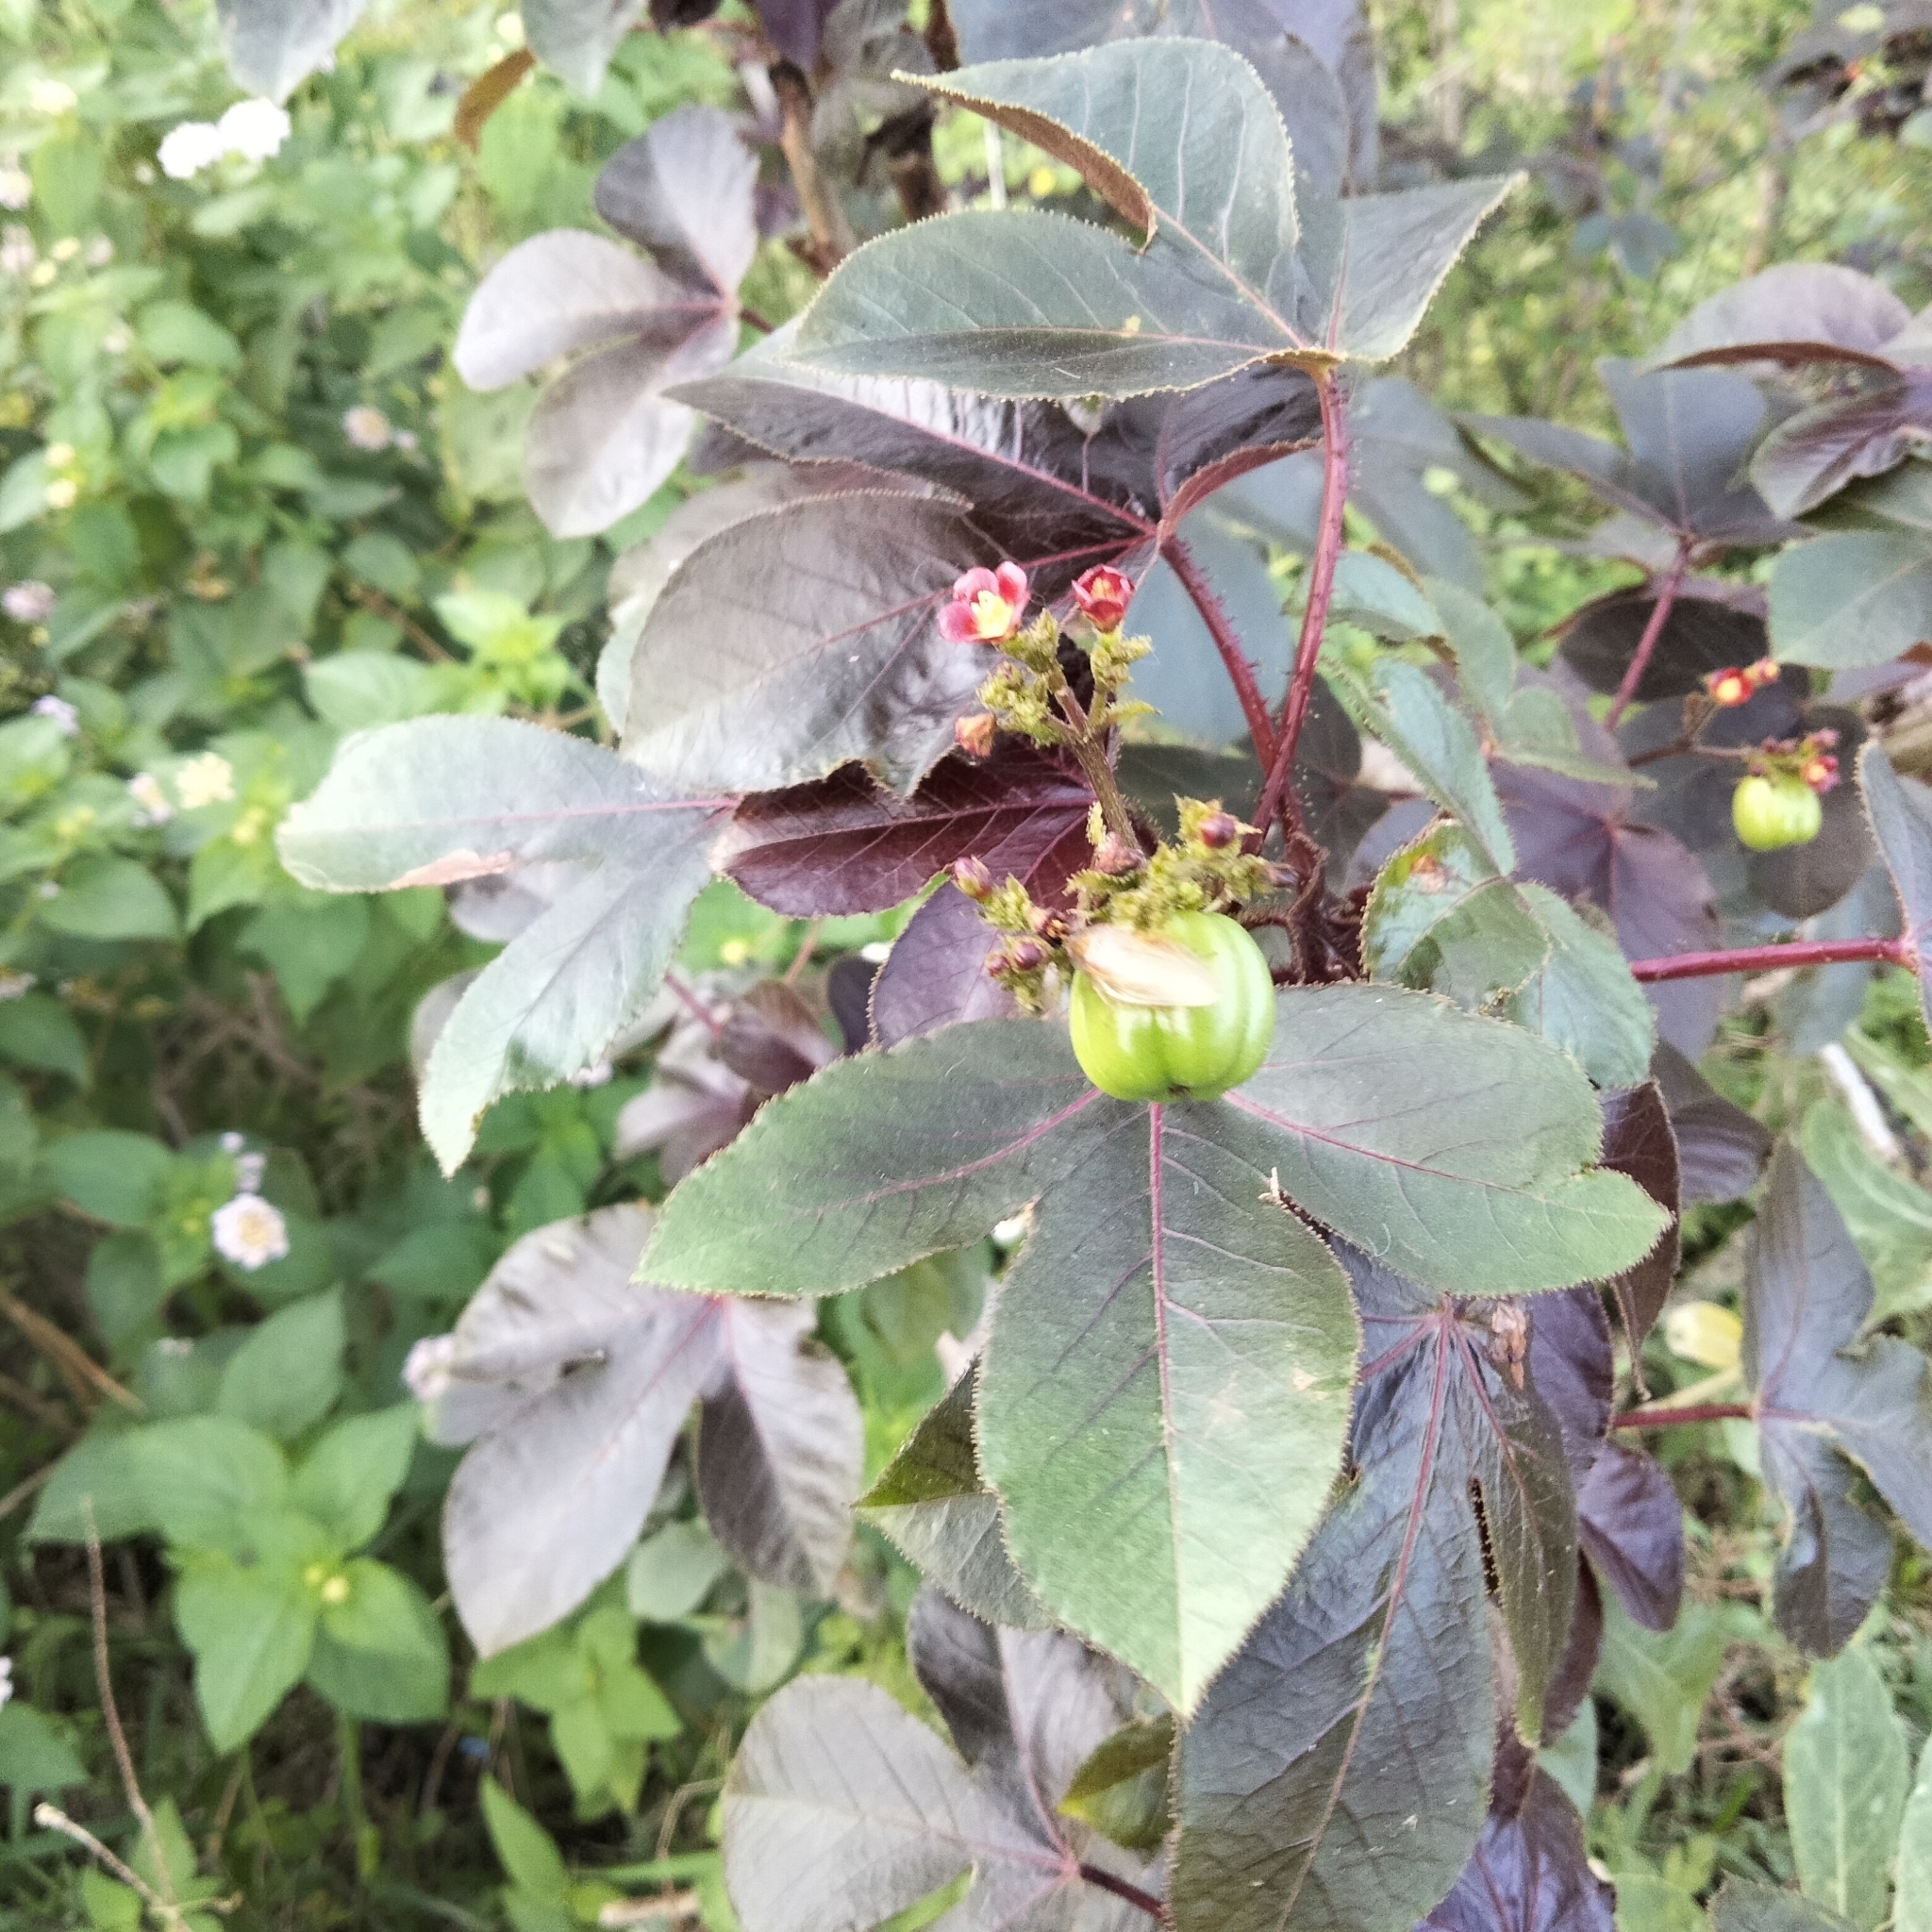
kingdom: Plantae
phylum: Tracheophyta
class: Magnoliopsida
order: Malpighiales
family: Euphorbiaceae
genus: Jatropha
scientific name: Jatropha gossypiifolia
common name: Bellyache bush
